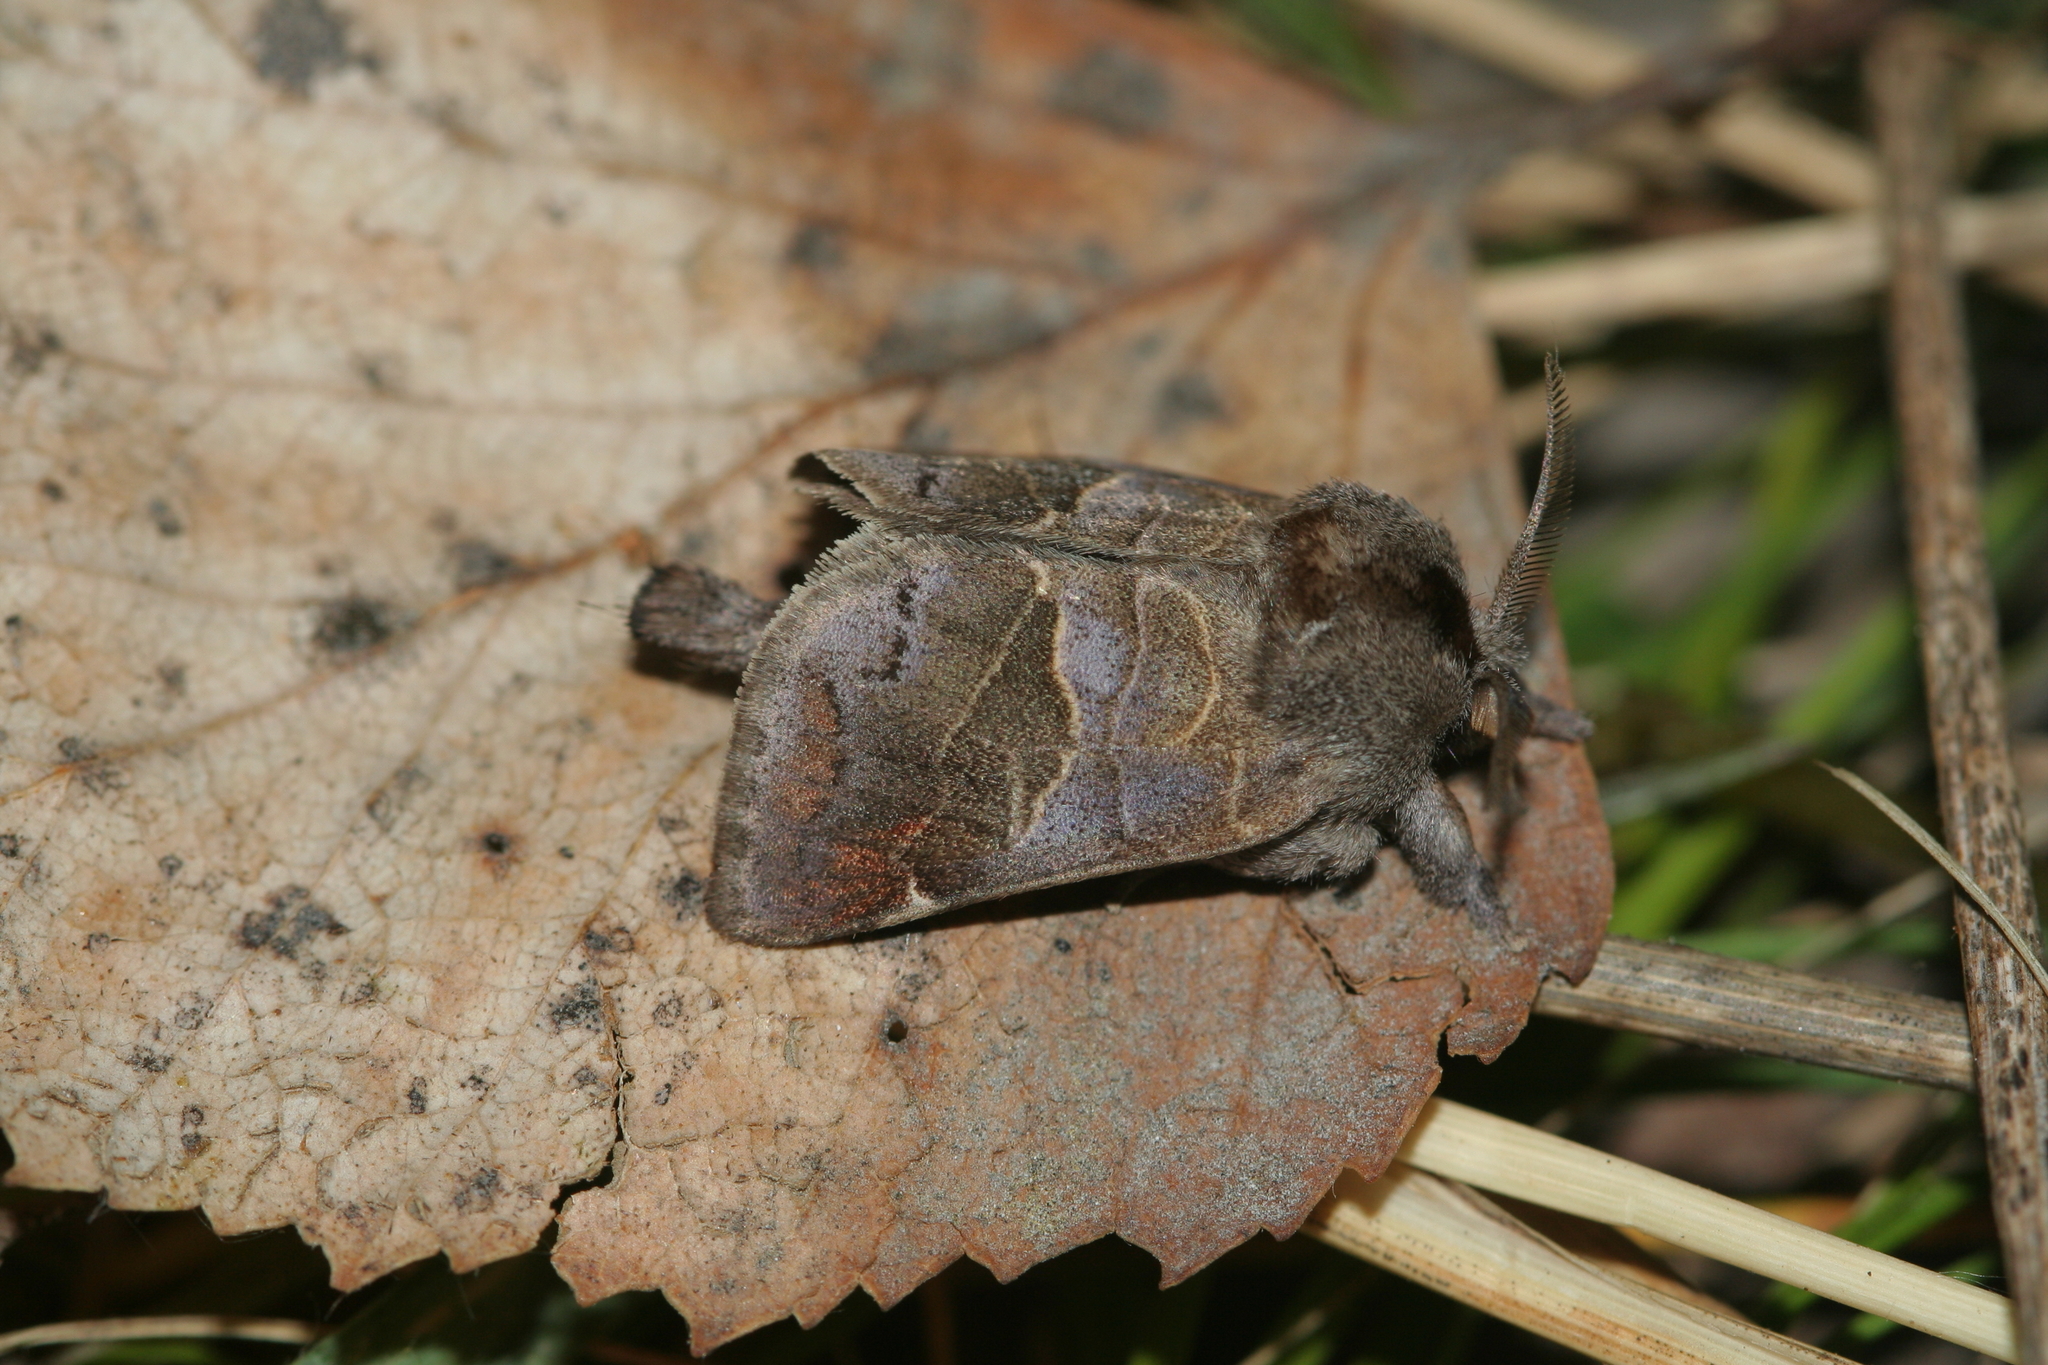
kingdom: Animalia
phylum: Arthropoda
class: Insecta
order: Lepidoptera
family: Notodontidae
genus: Clostera
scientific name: Clostera pigra
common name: Small chocolate-tip
